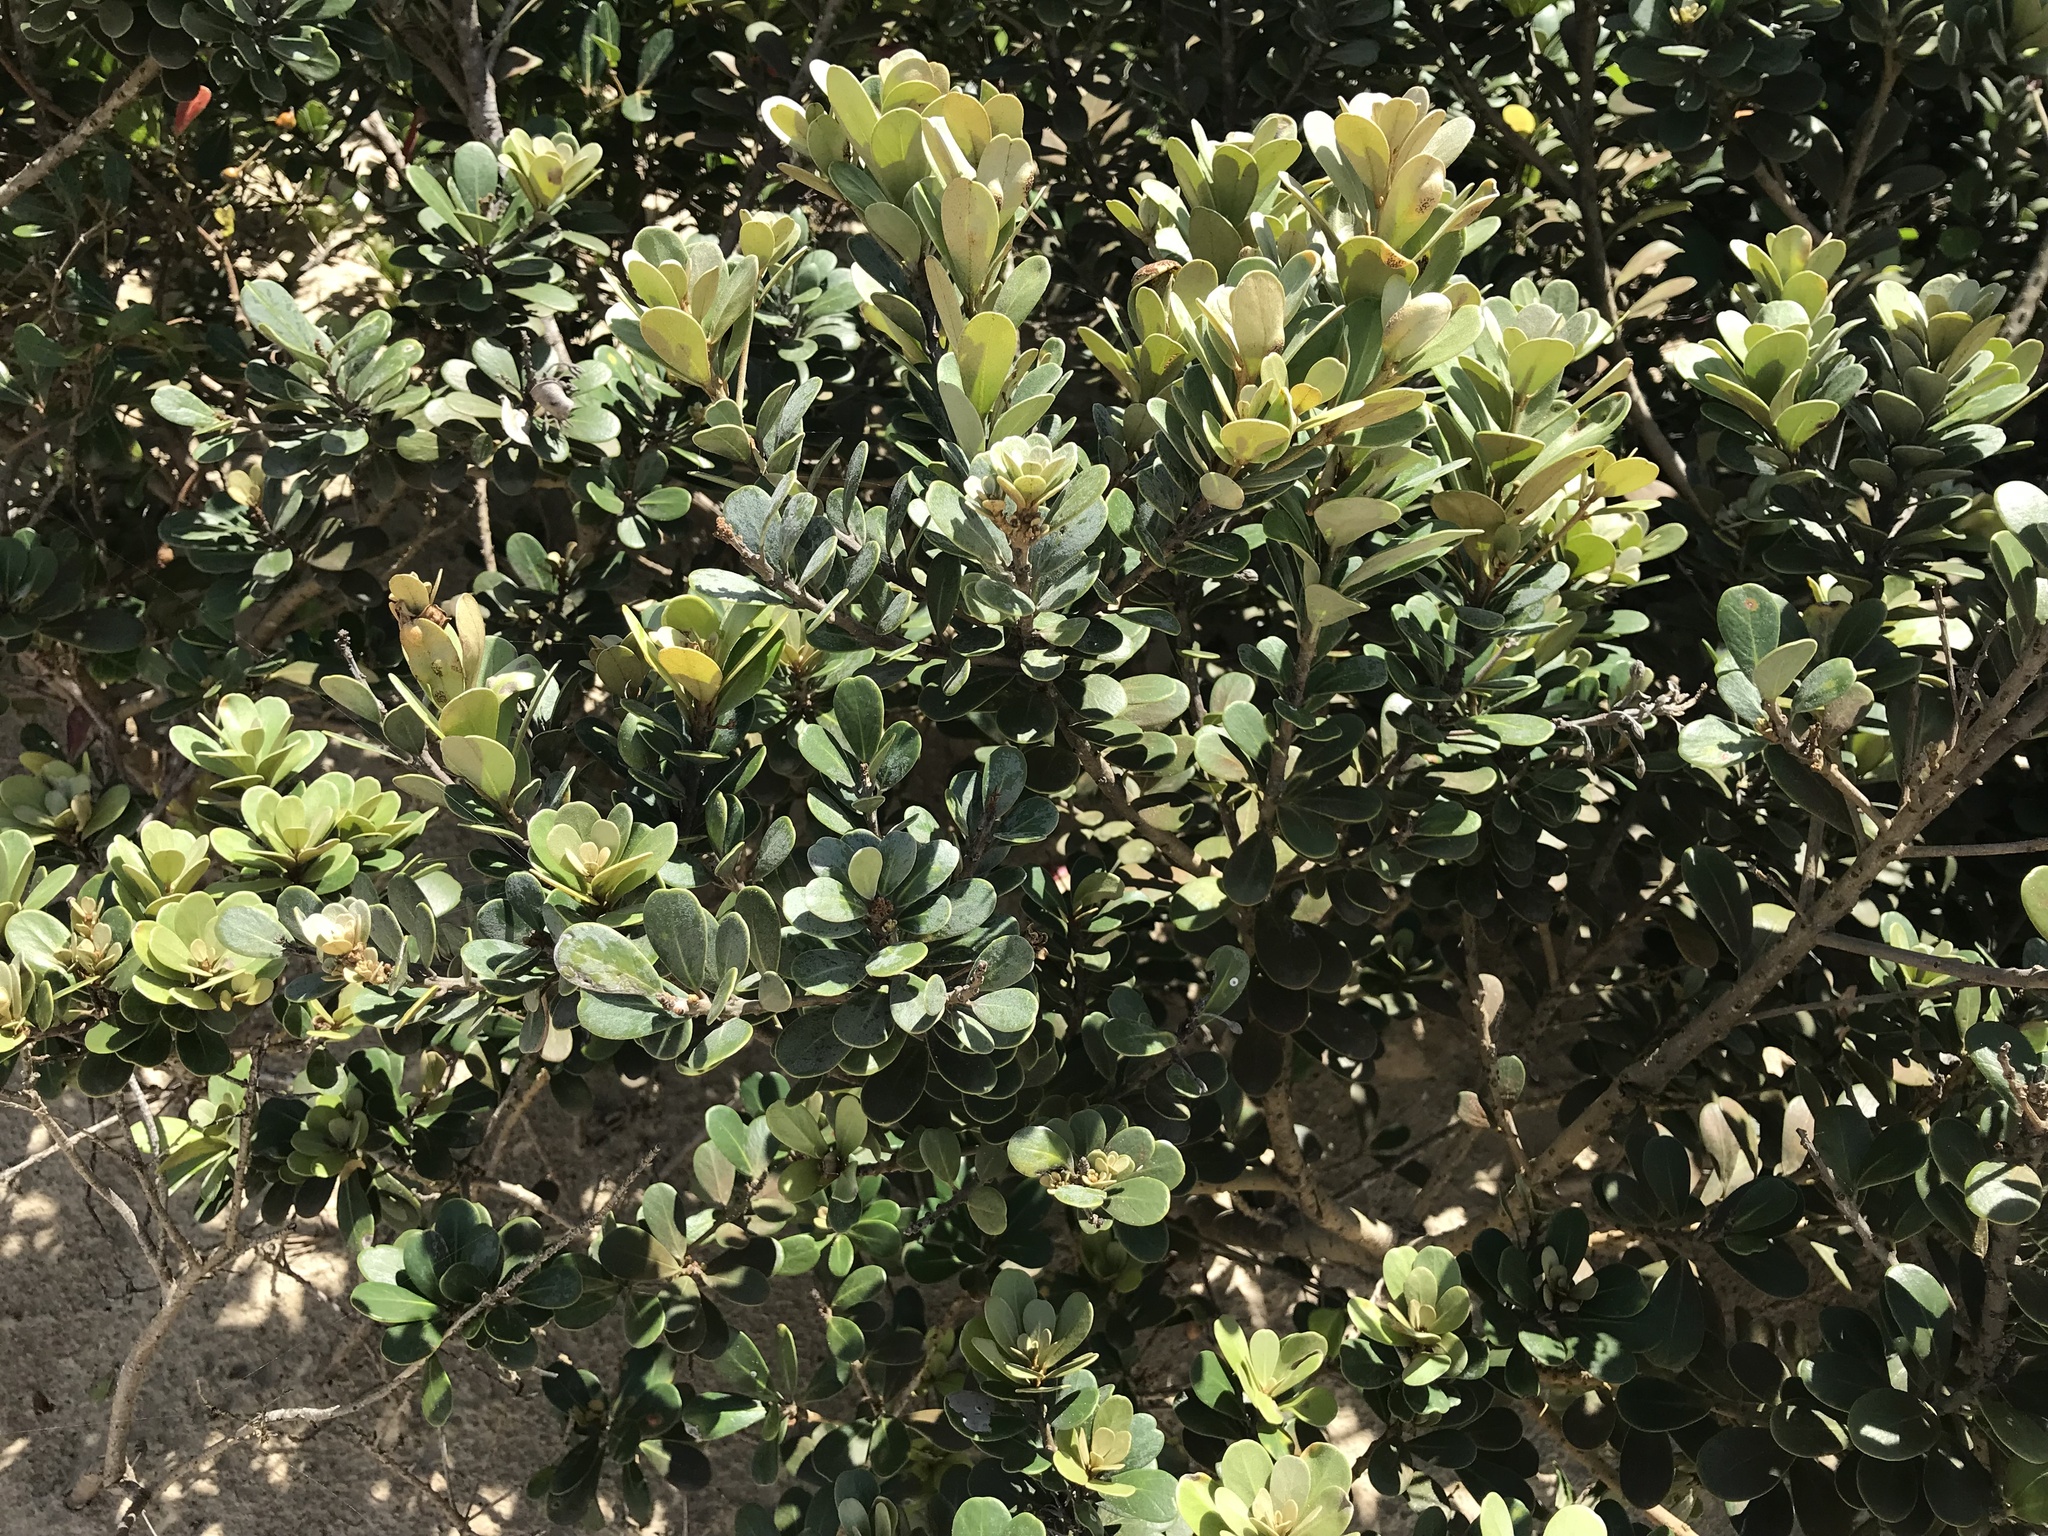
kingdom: Plantae
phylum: Tracheophyta
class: Magnoliopsida
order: Ericales
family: Sapotaceae
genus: Mimusops
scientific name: Mimusops caffra
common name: Coastal red milkwood
